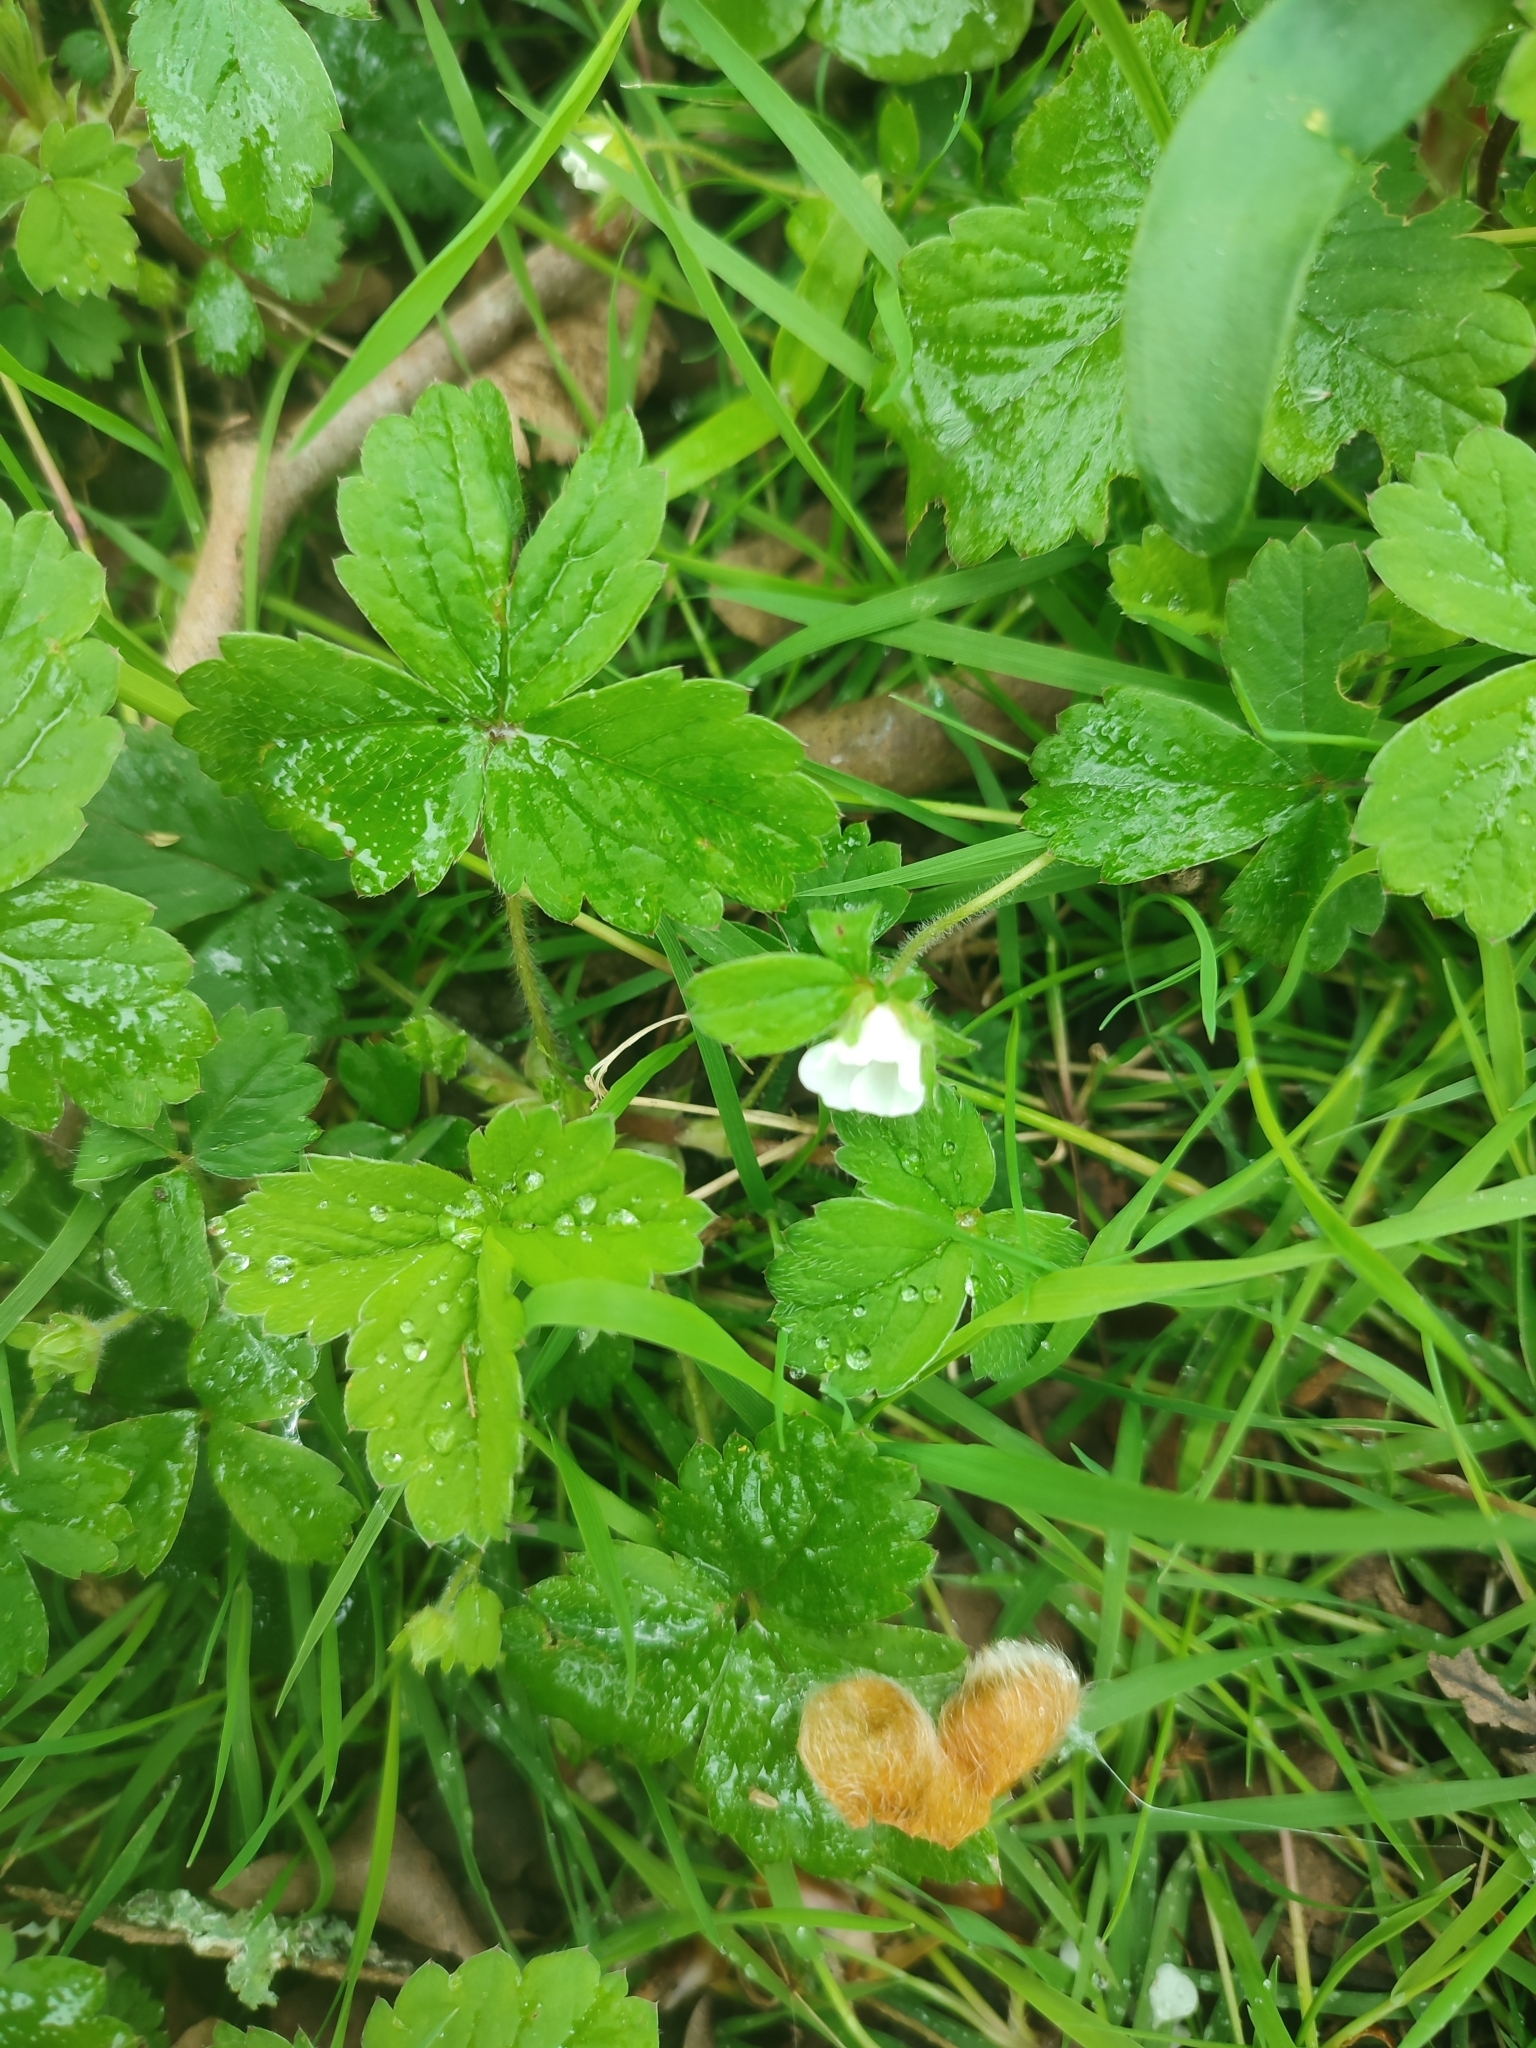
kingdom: Plantae
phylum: Tracheophyta
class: Magnoliopsida
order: Rosales
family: Rosaceae
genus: Potentilla
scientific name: Potentilla sterilis
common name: Barren strawberry
